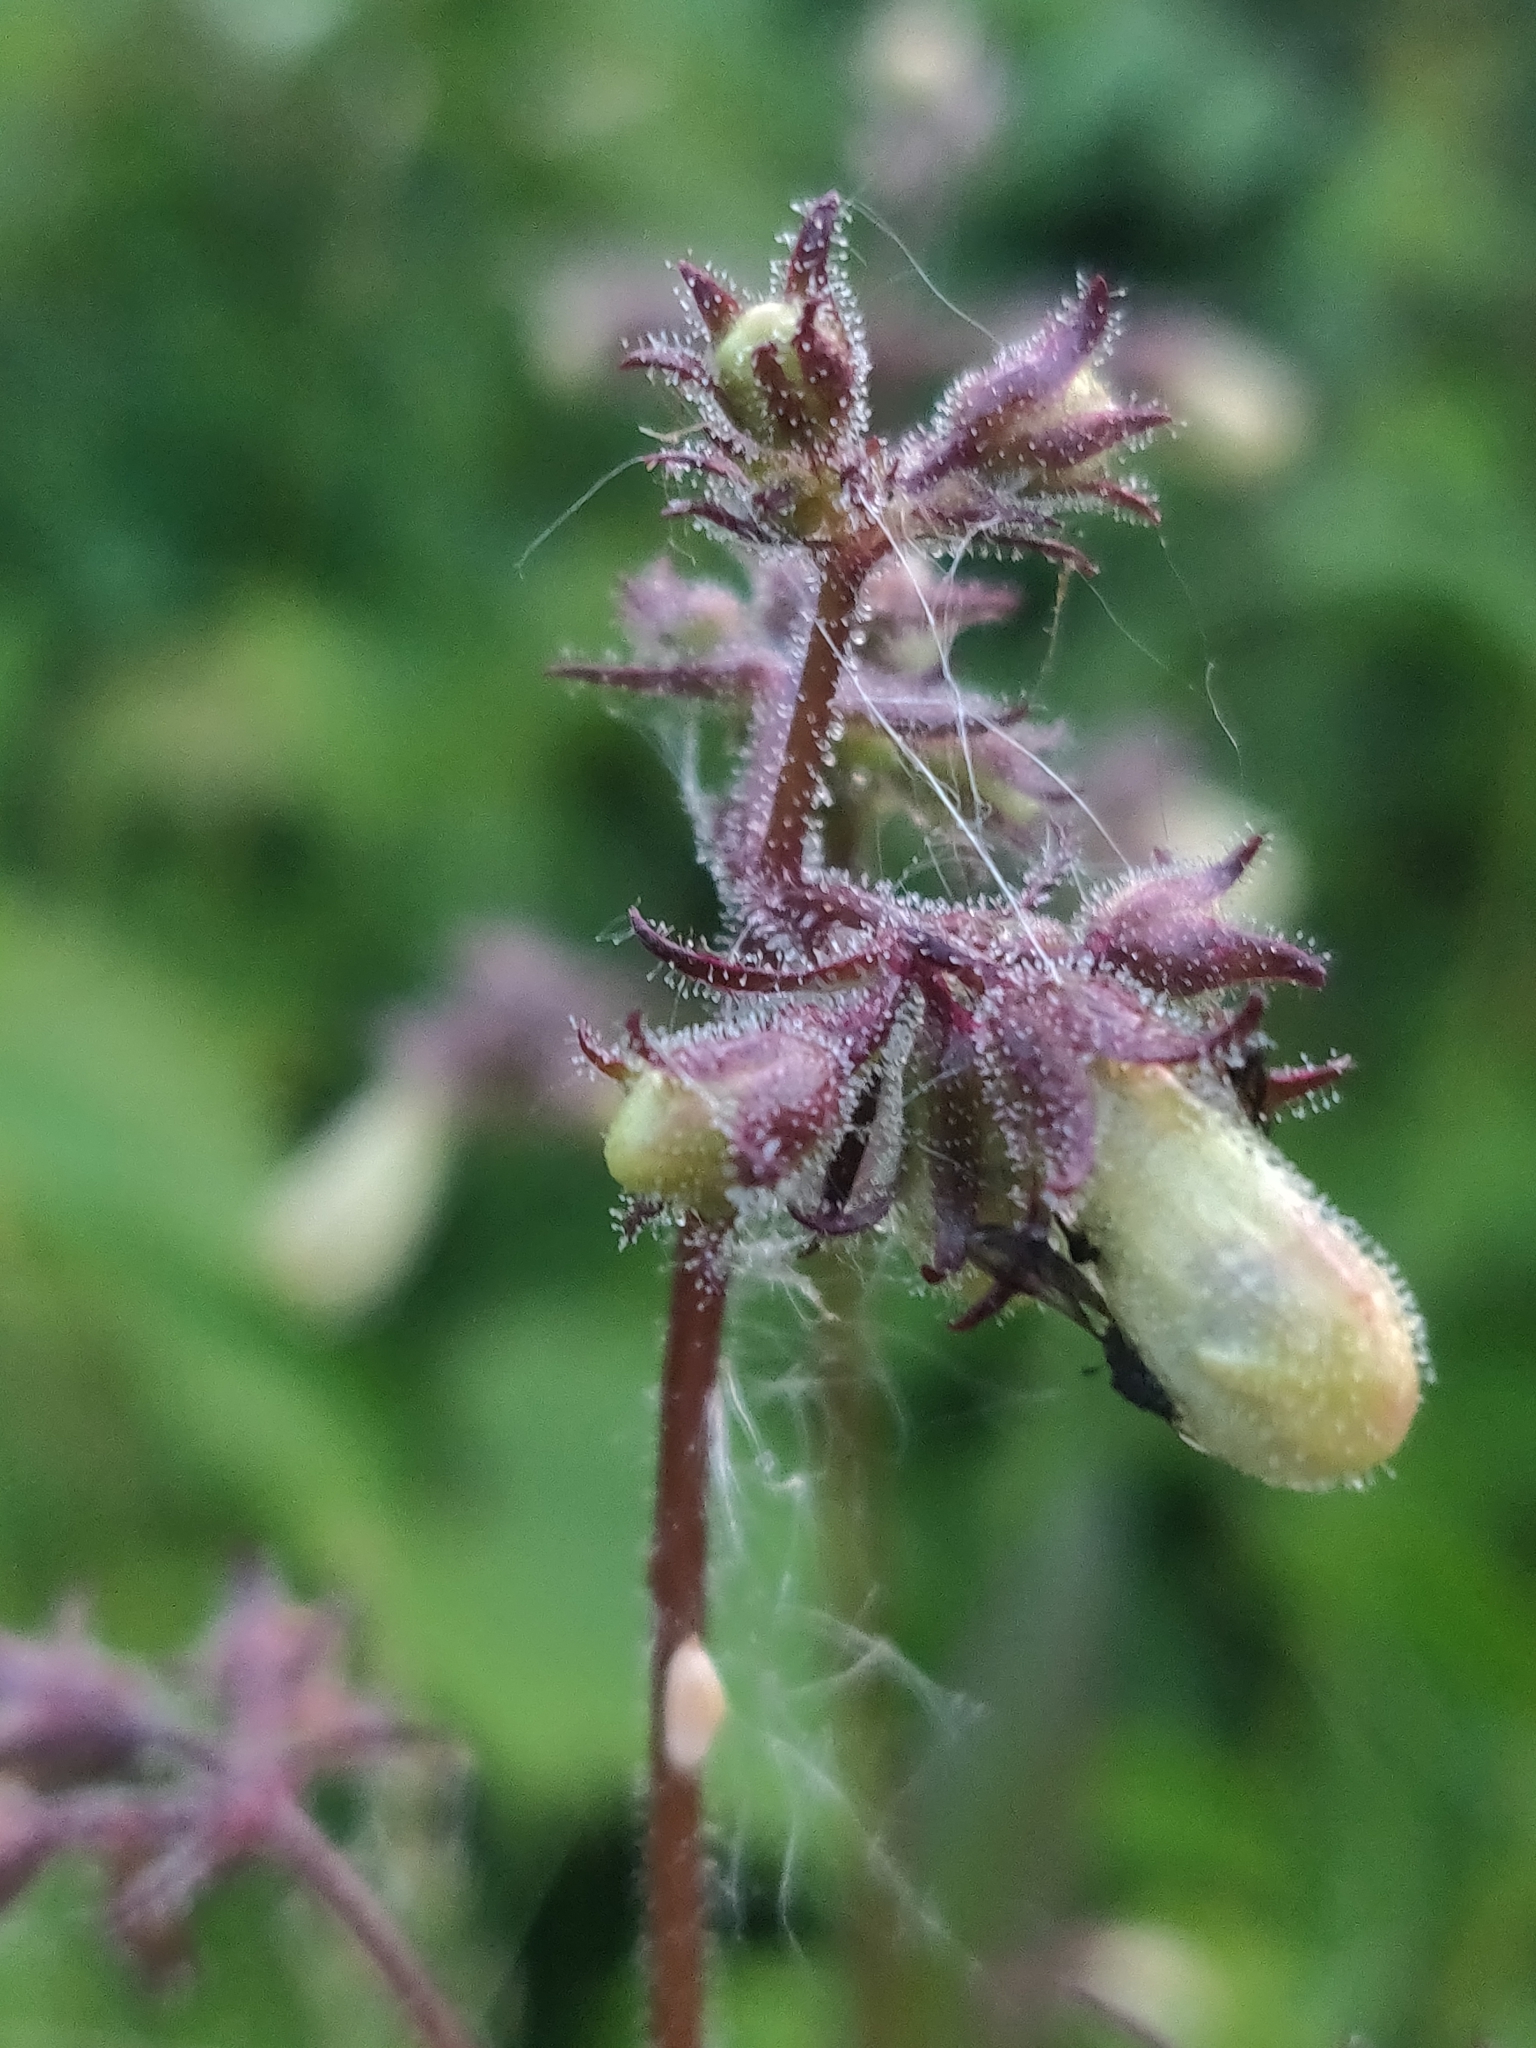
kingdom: Plantae
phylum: Tracheophyta
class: Magnoliopsida
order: Lamiales
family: Plantaginaceae
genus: Penstemon
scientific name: Penstemon digitalis
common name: Foxglove beardtongue
